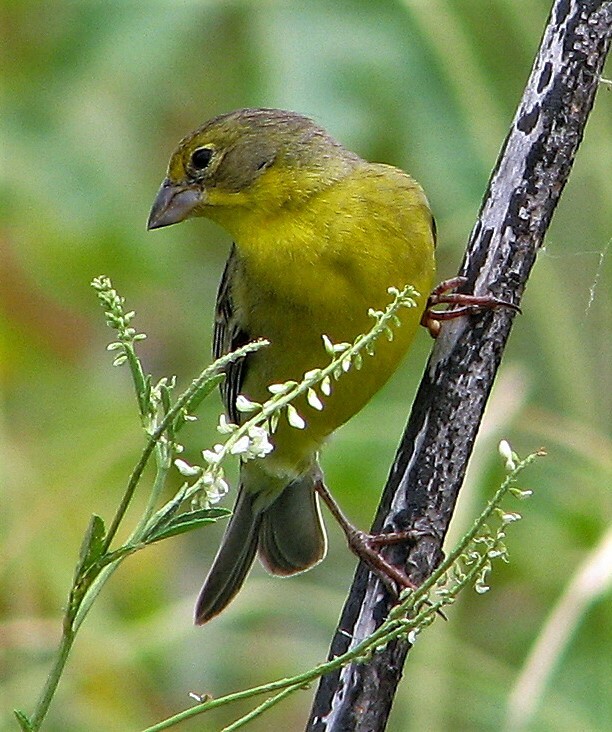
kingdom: Animalia
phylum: Chordata
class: Aves
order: Passeriformes
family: Thraupidae
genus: Sicalis
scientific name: Sicalis luteola
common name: Grassland yellow-finch
